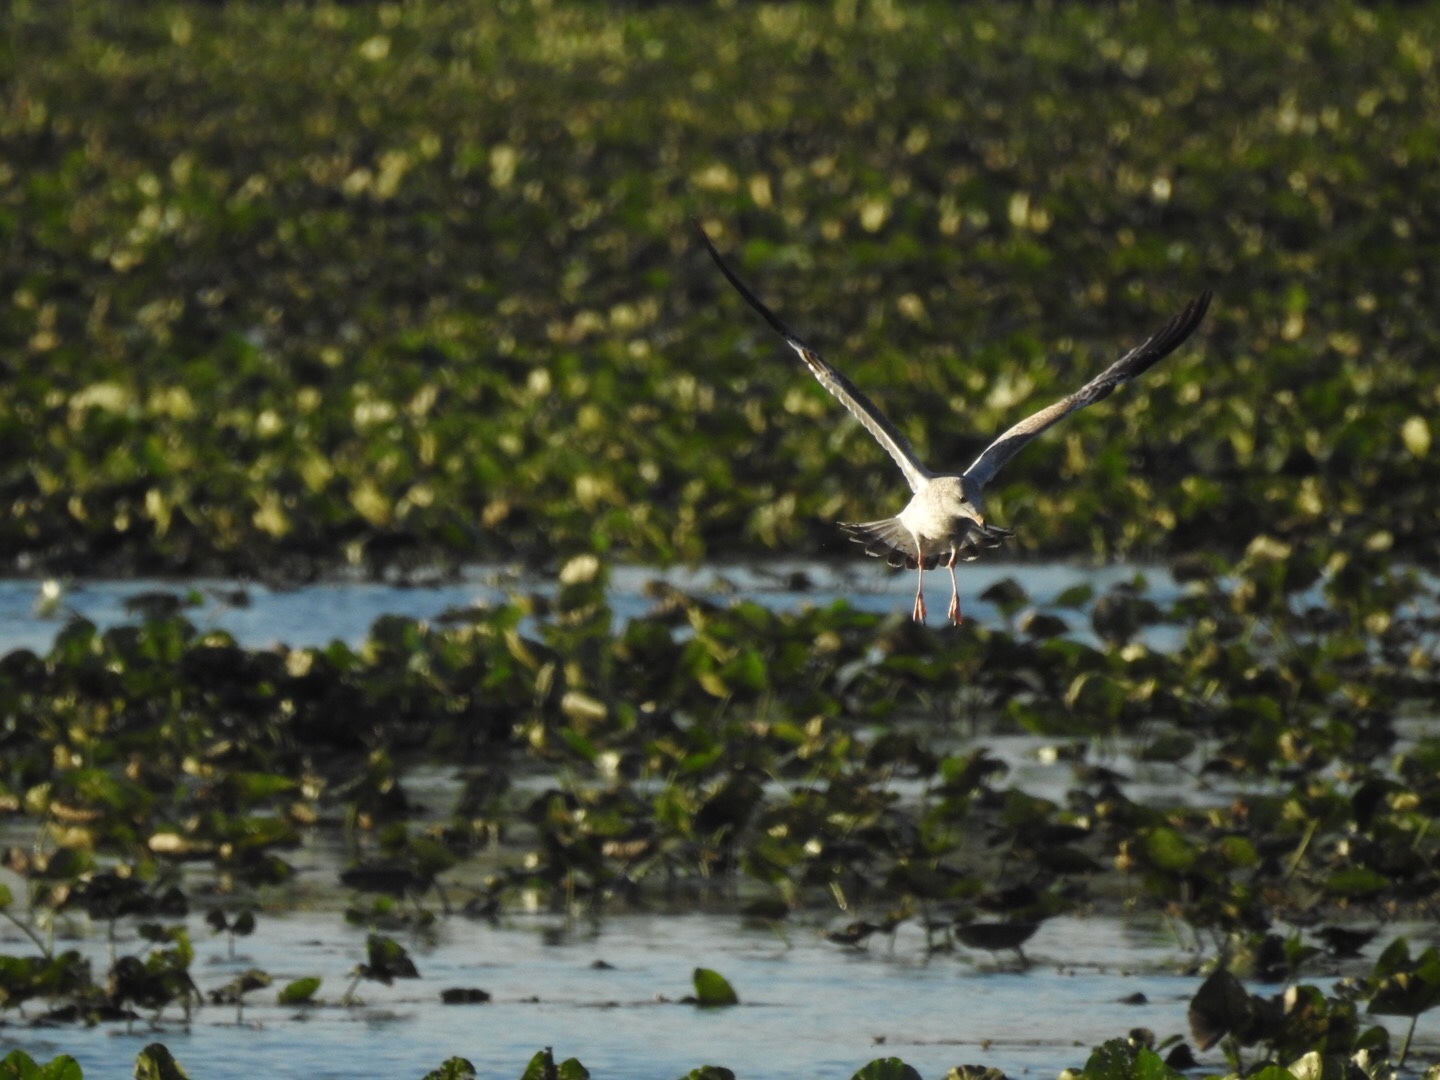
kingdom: Animalia
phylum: Chordata
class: Aves
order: Charadriiformes
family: Laridae
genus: Larus
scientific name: Larus delawarensis
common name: Ring-billed gull
